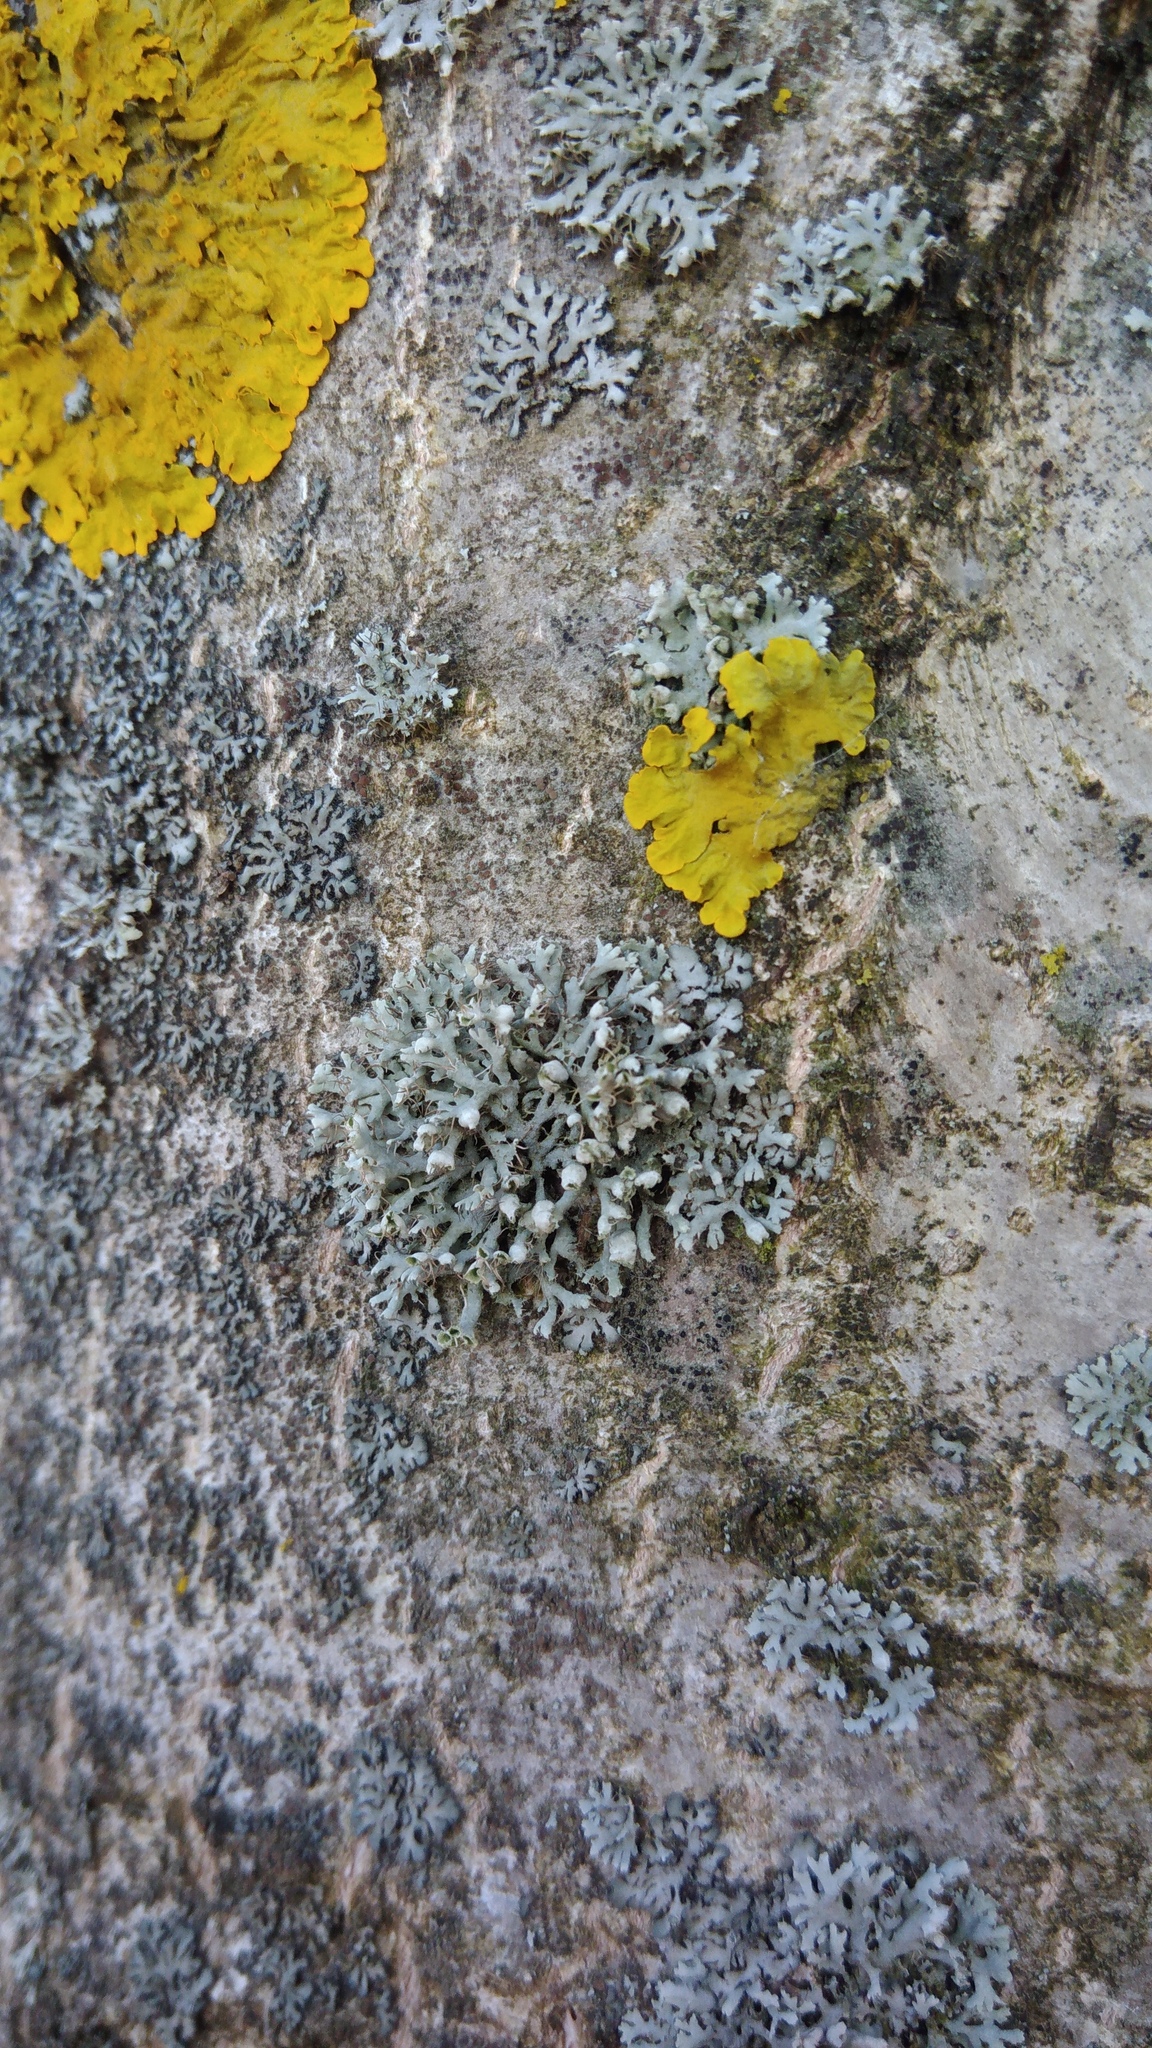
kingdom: Fungi
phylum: Ascomycota
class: Lecanoromycetes
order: Caliciales
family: Physciaceae
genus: Physcia
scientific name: Physcia adscendens
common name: Hooded rosette lichen
